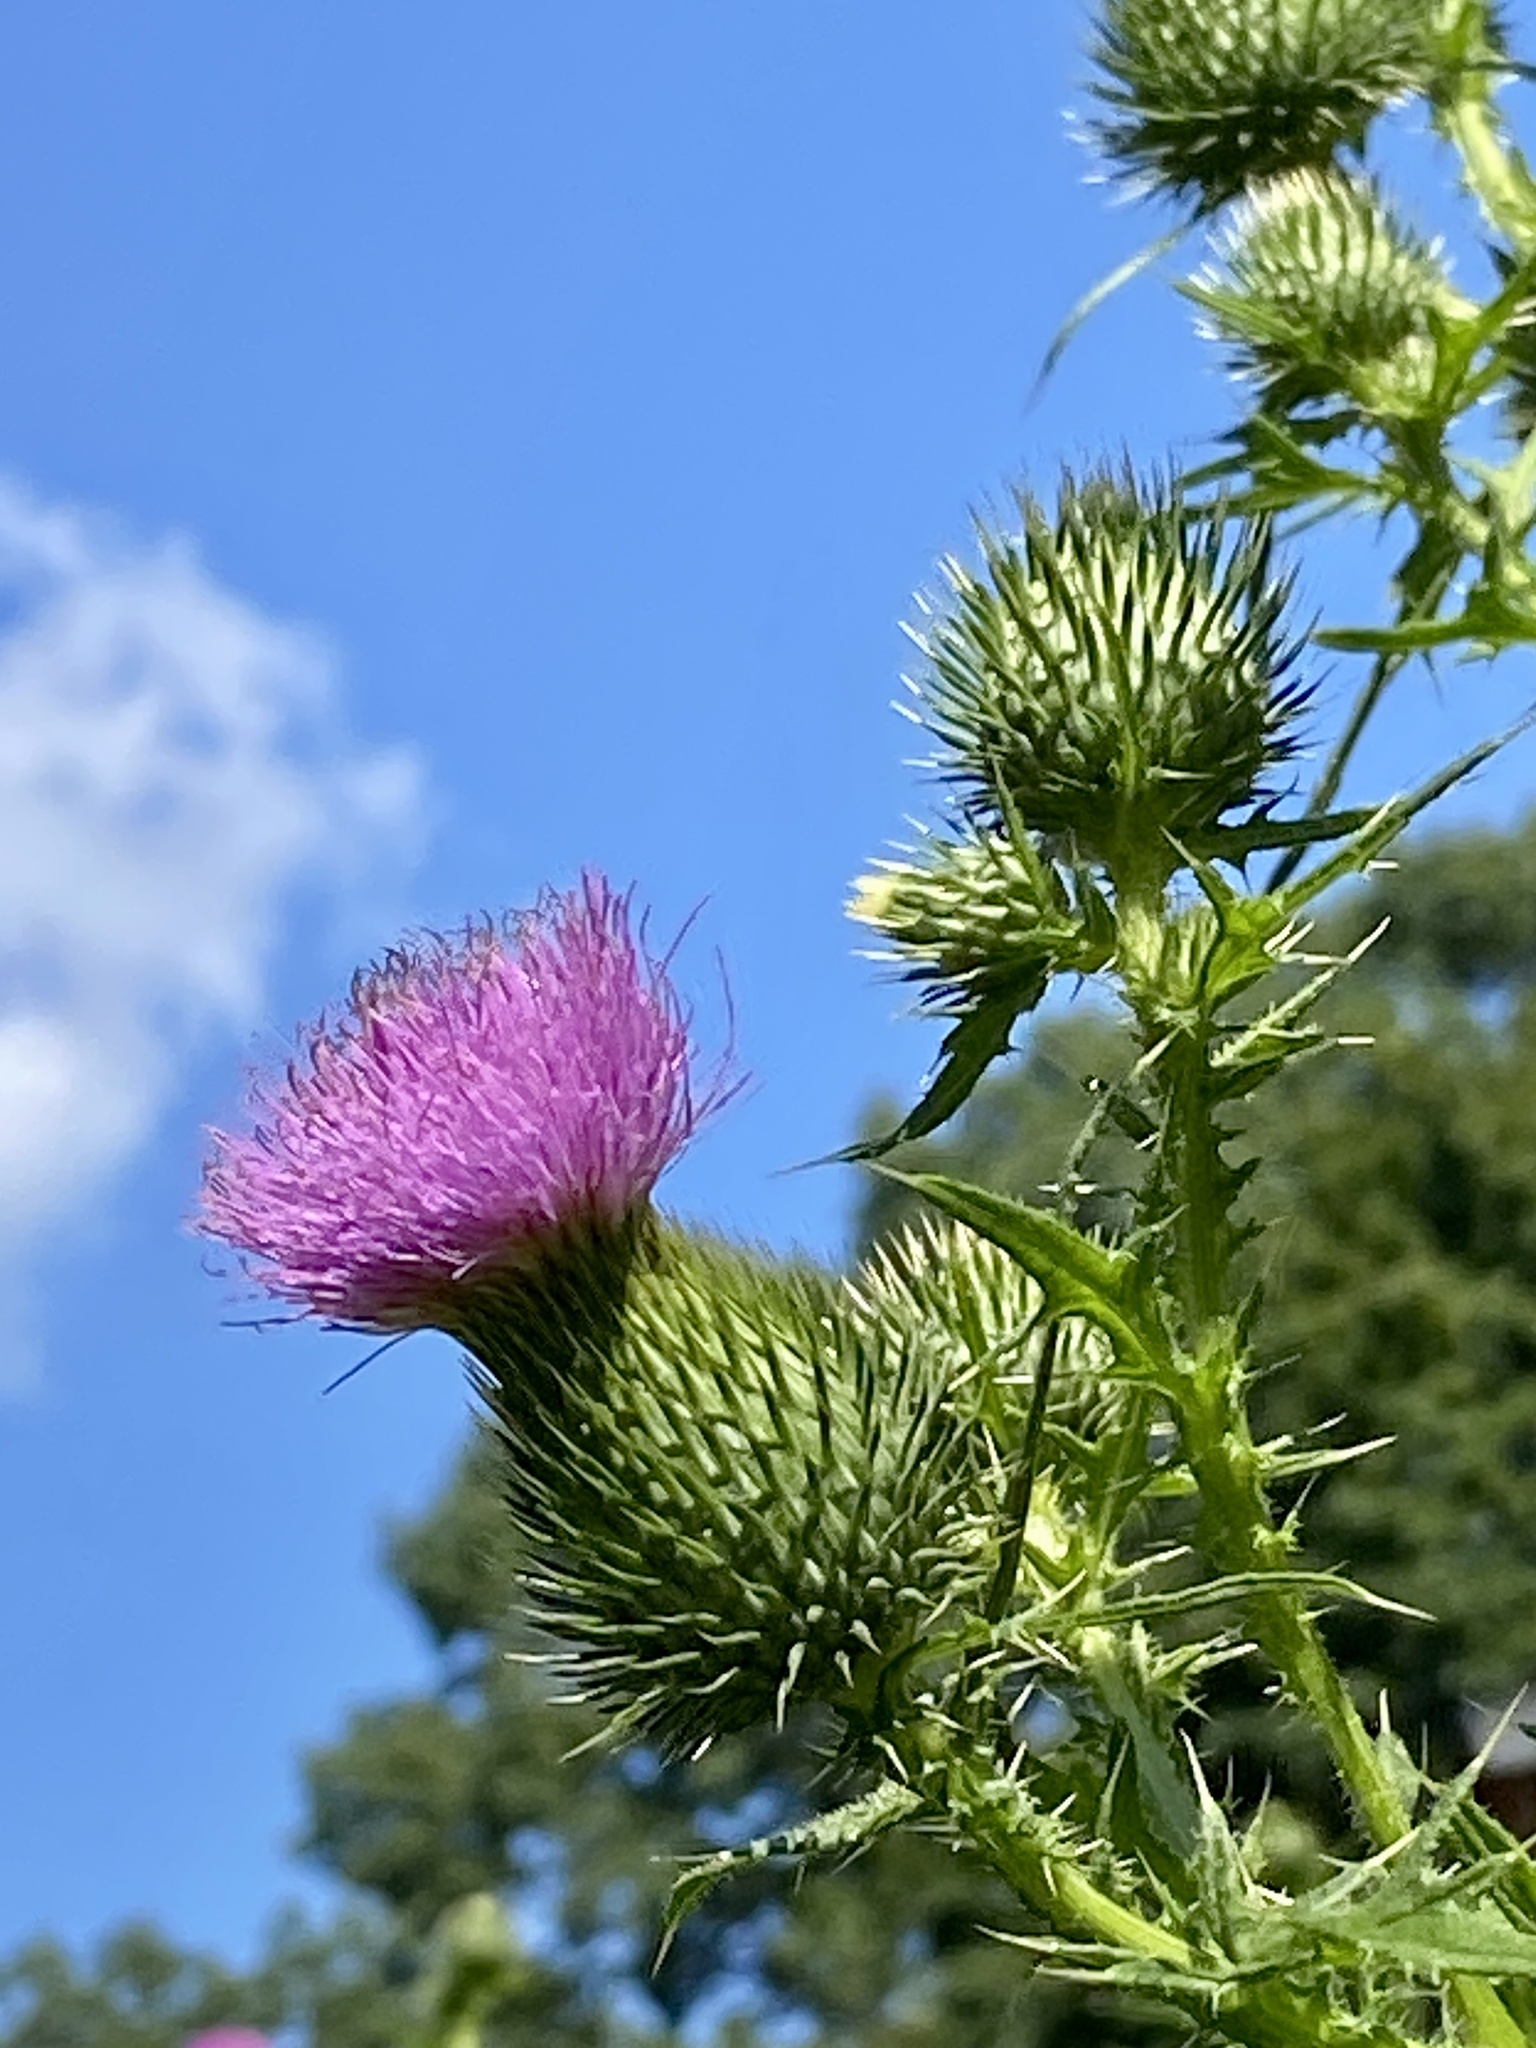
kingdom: Plantae
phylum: Tracheophyta
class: Magnoliopsida
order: Asterales
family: Asteraceae
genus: Cirsium
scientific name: Cirsium vulgare
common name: Bull thistle
